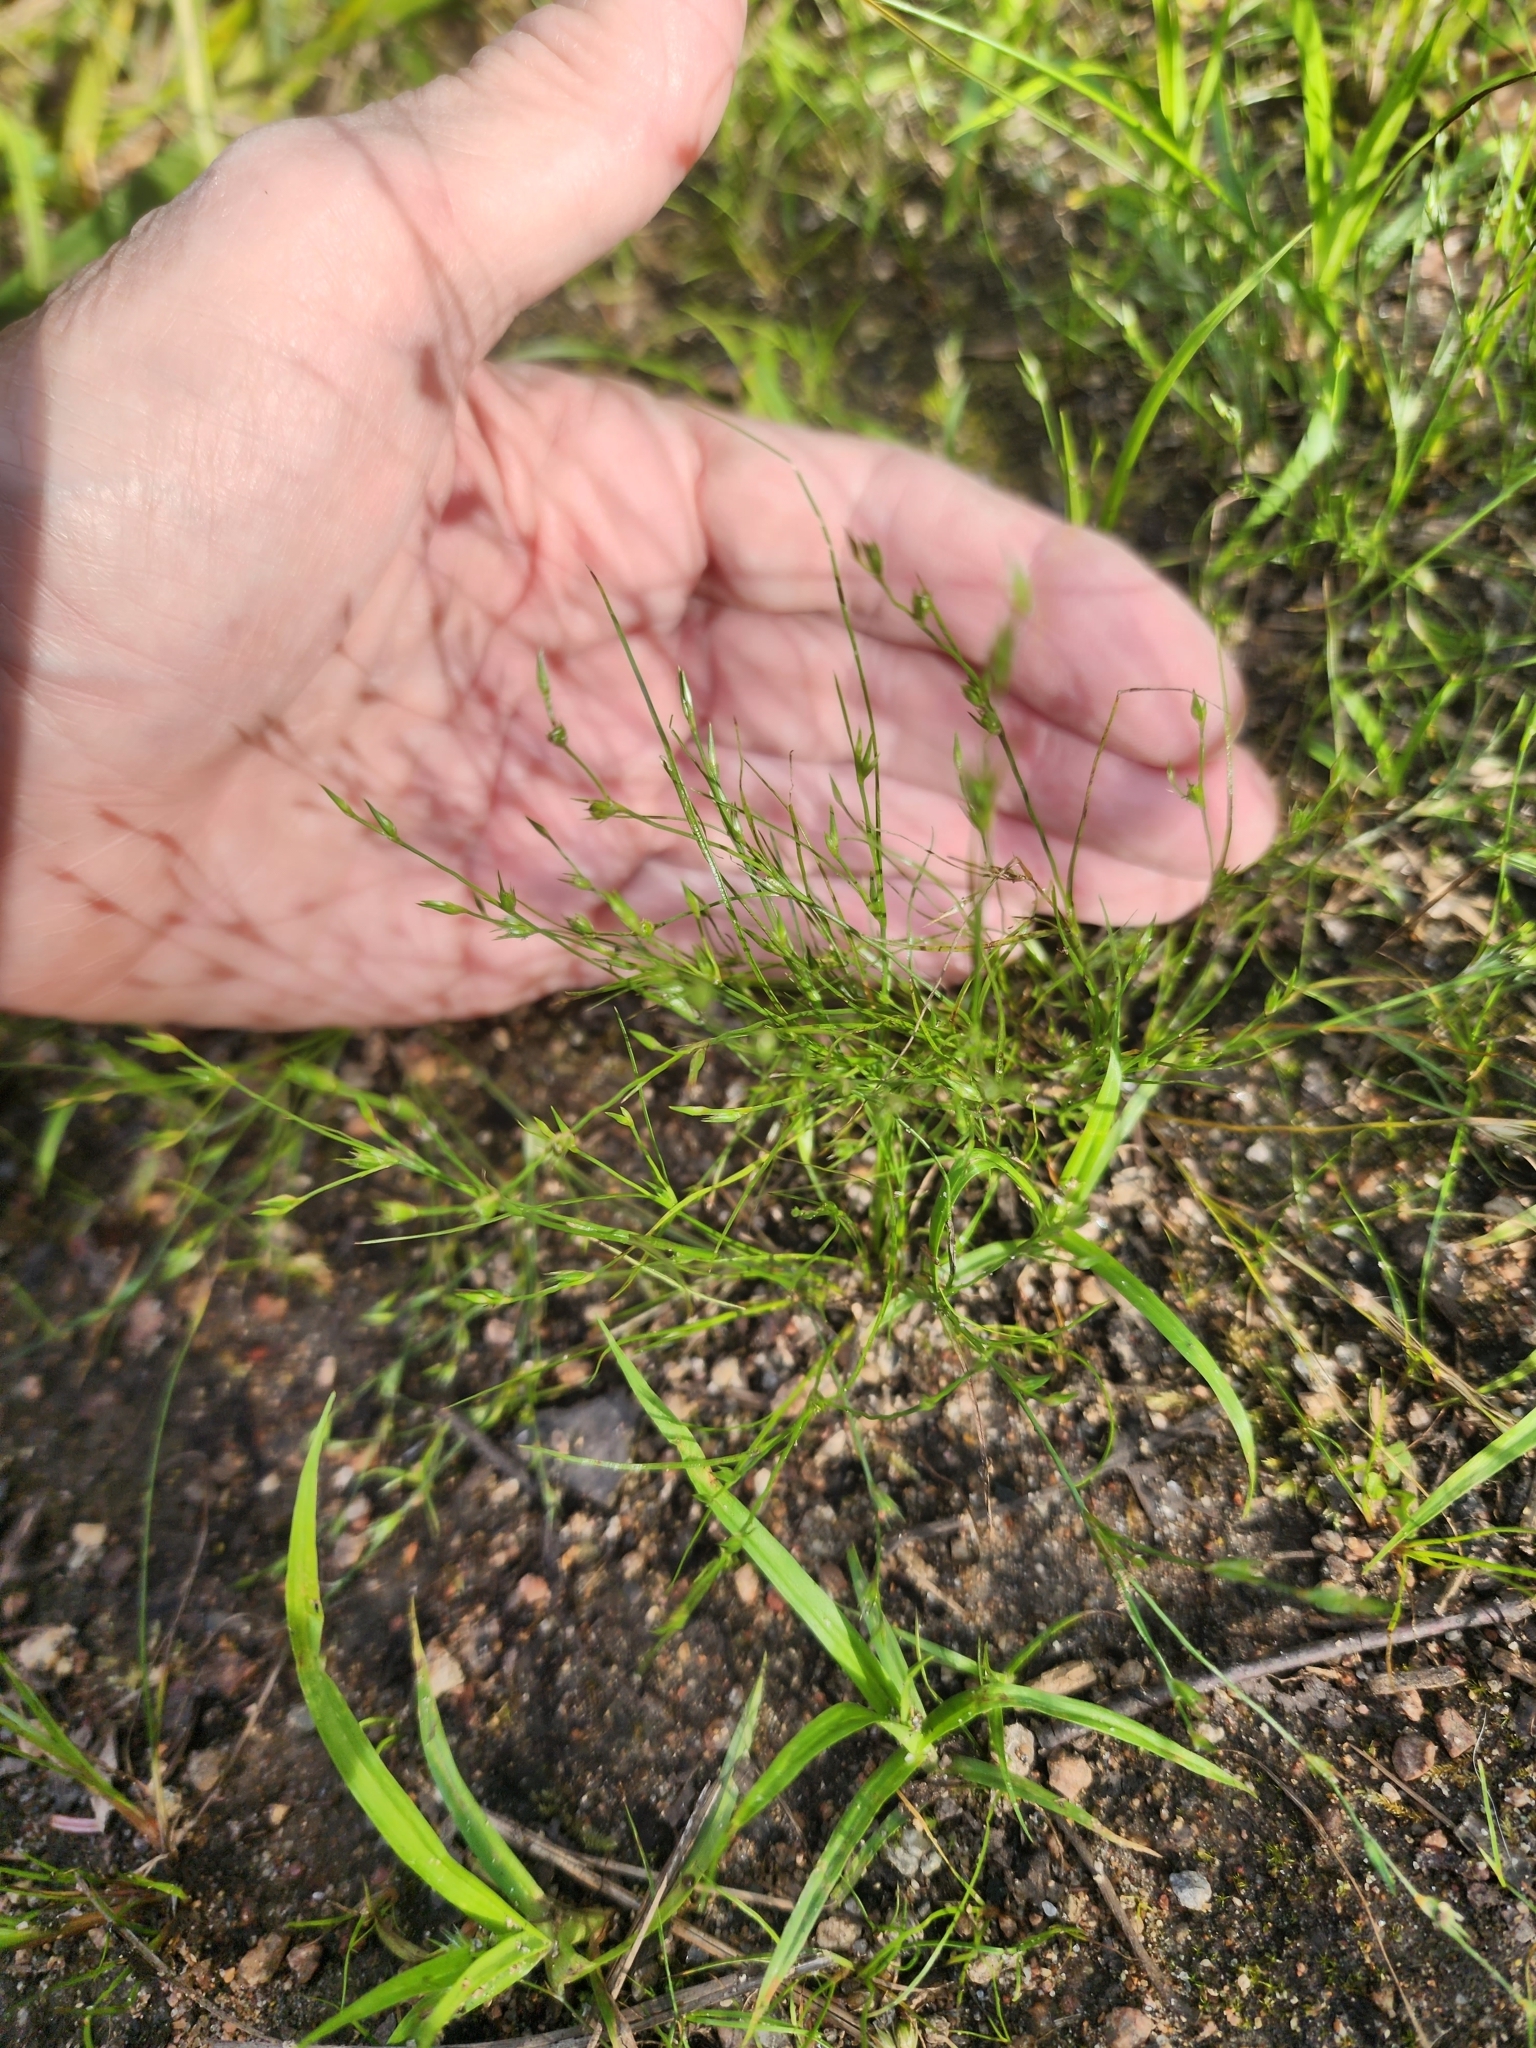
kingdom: Plantae
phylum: Tracheophyta
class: Liliopsida
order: Poales
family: Juncaceae
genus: Juncus
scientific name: Juncus bufonius
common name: Toad rush
